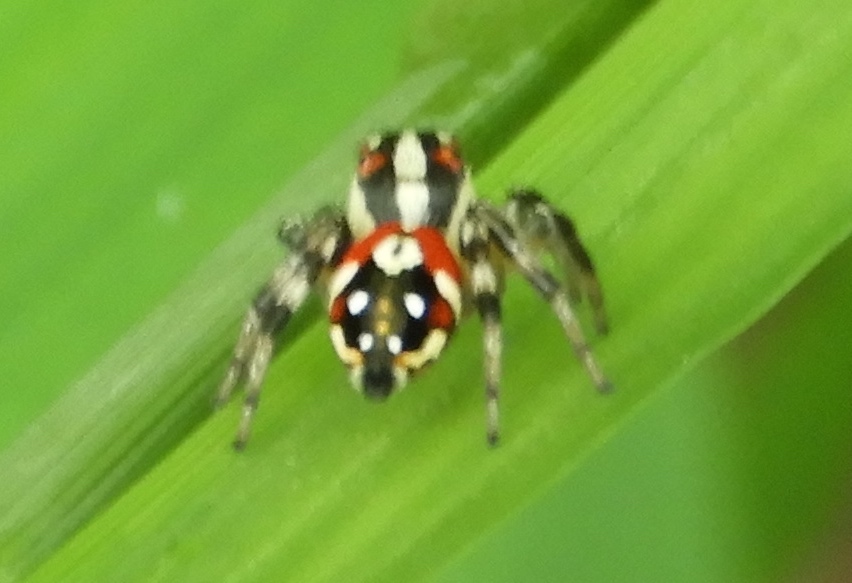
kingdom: Animalia
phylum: Arthropoda
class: Arachnida
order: Araneae
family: Salticidae
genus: Nycerella
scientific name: Nycerella delecta
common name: Jumping spiders
